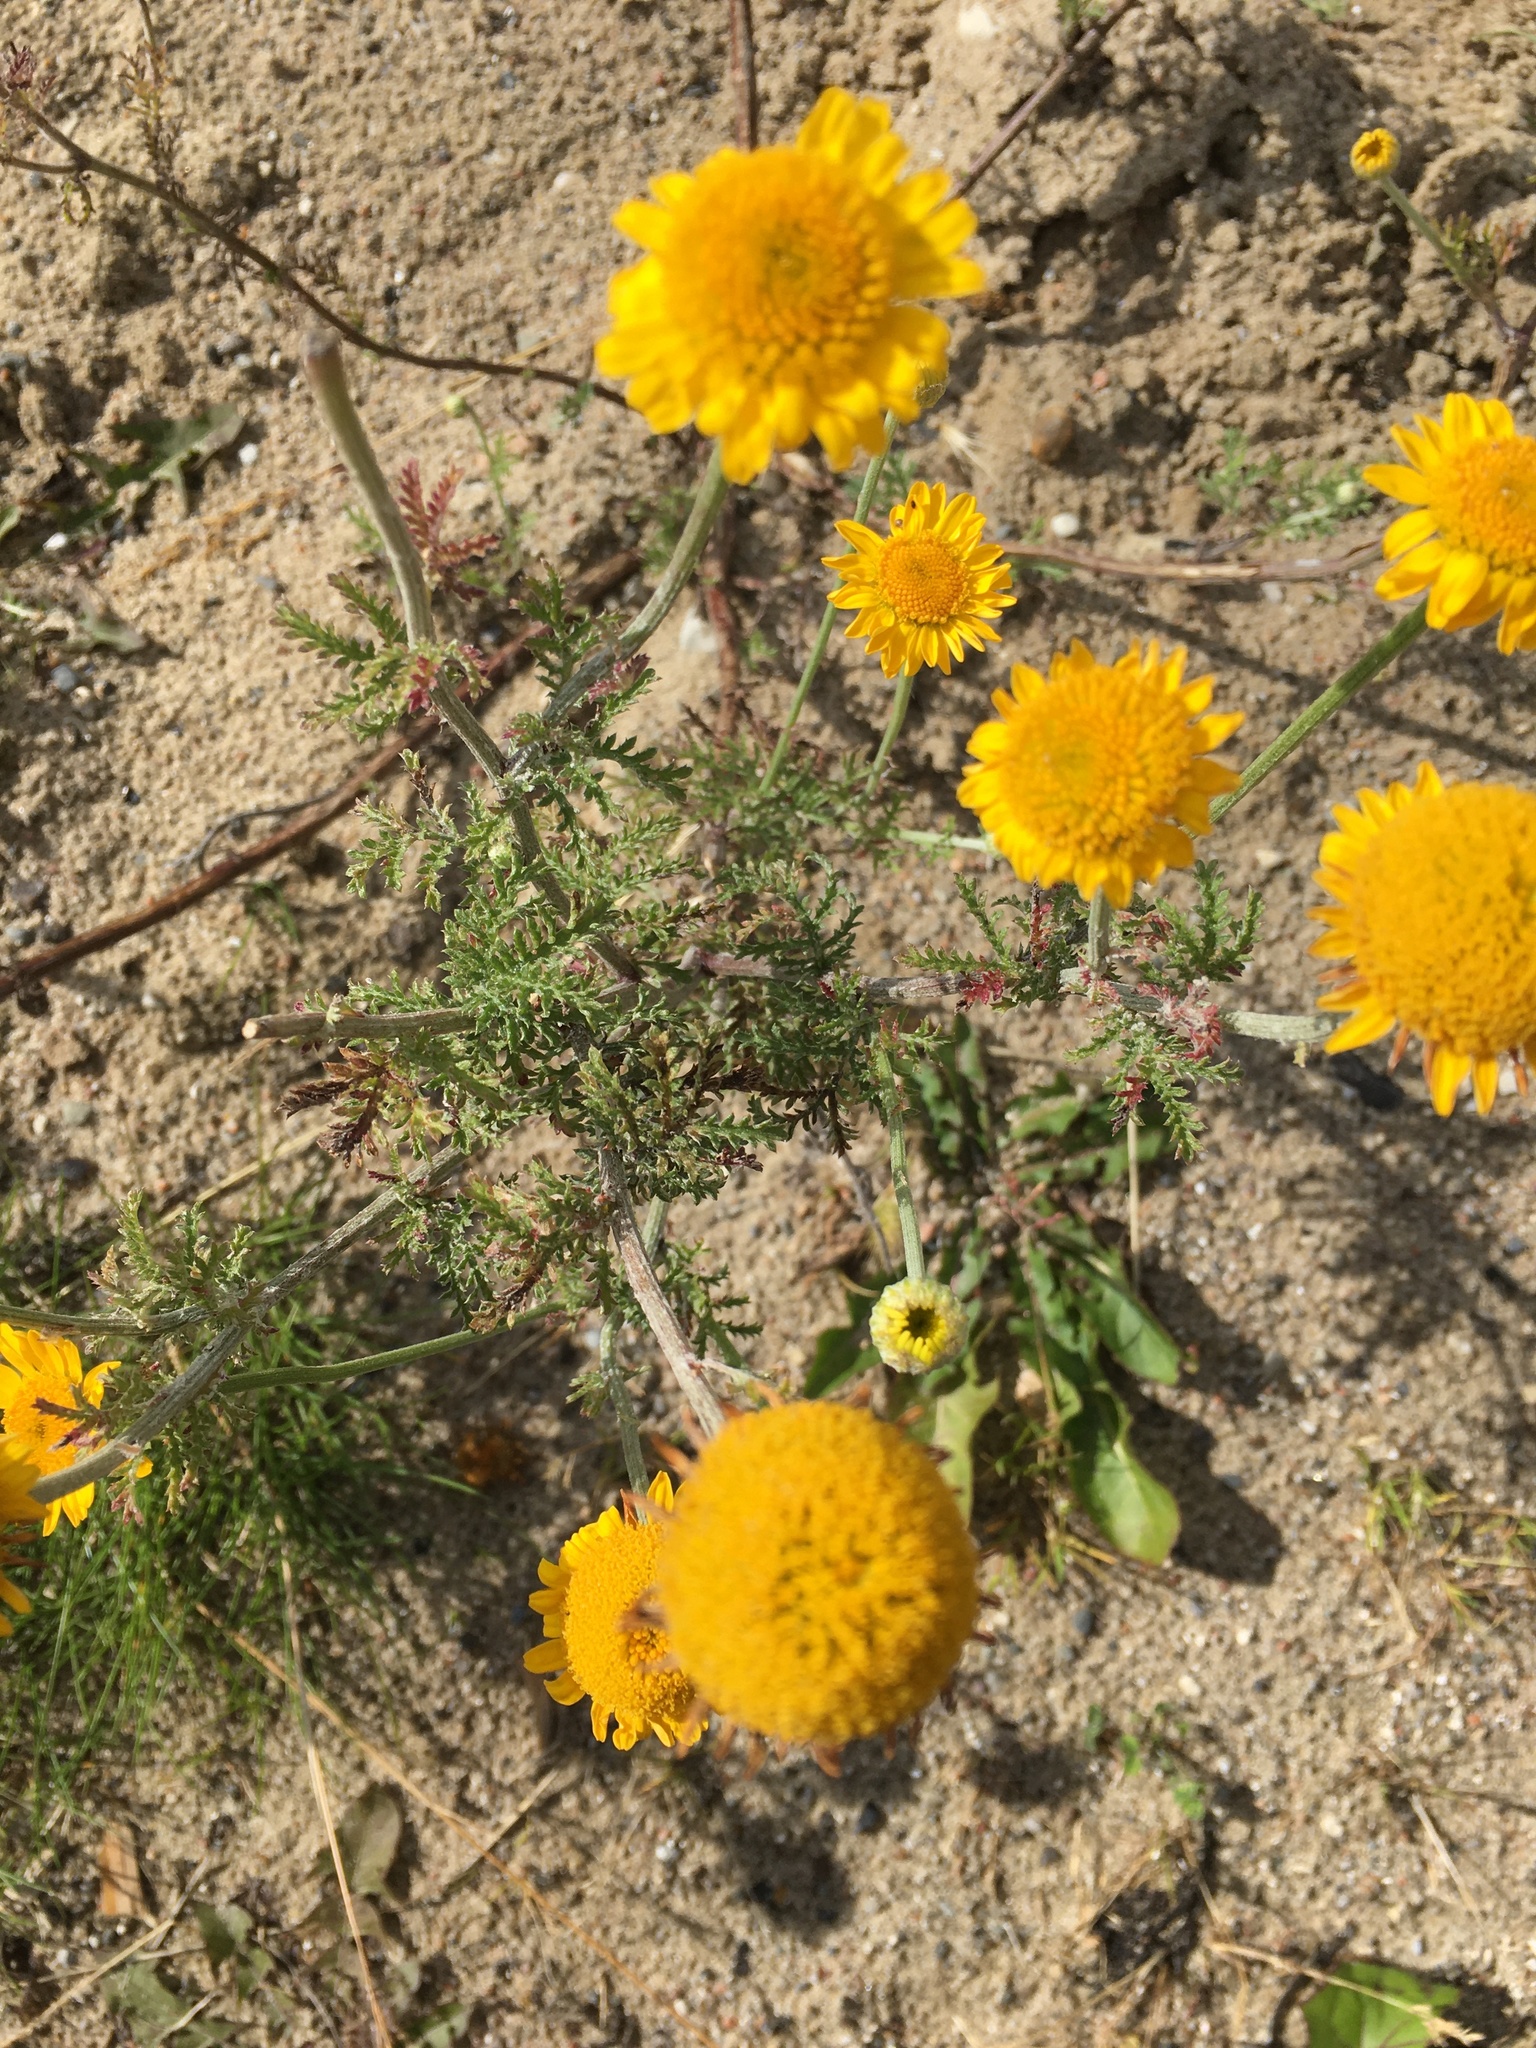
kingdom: Plantae
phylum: Tracheophyta
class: Magnoliopsida
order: Asterales
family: Asteraceae
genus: Cota
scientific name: Cota tinctoria
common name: Golden chamomile
